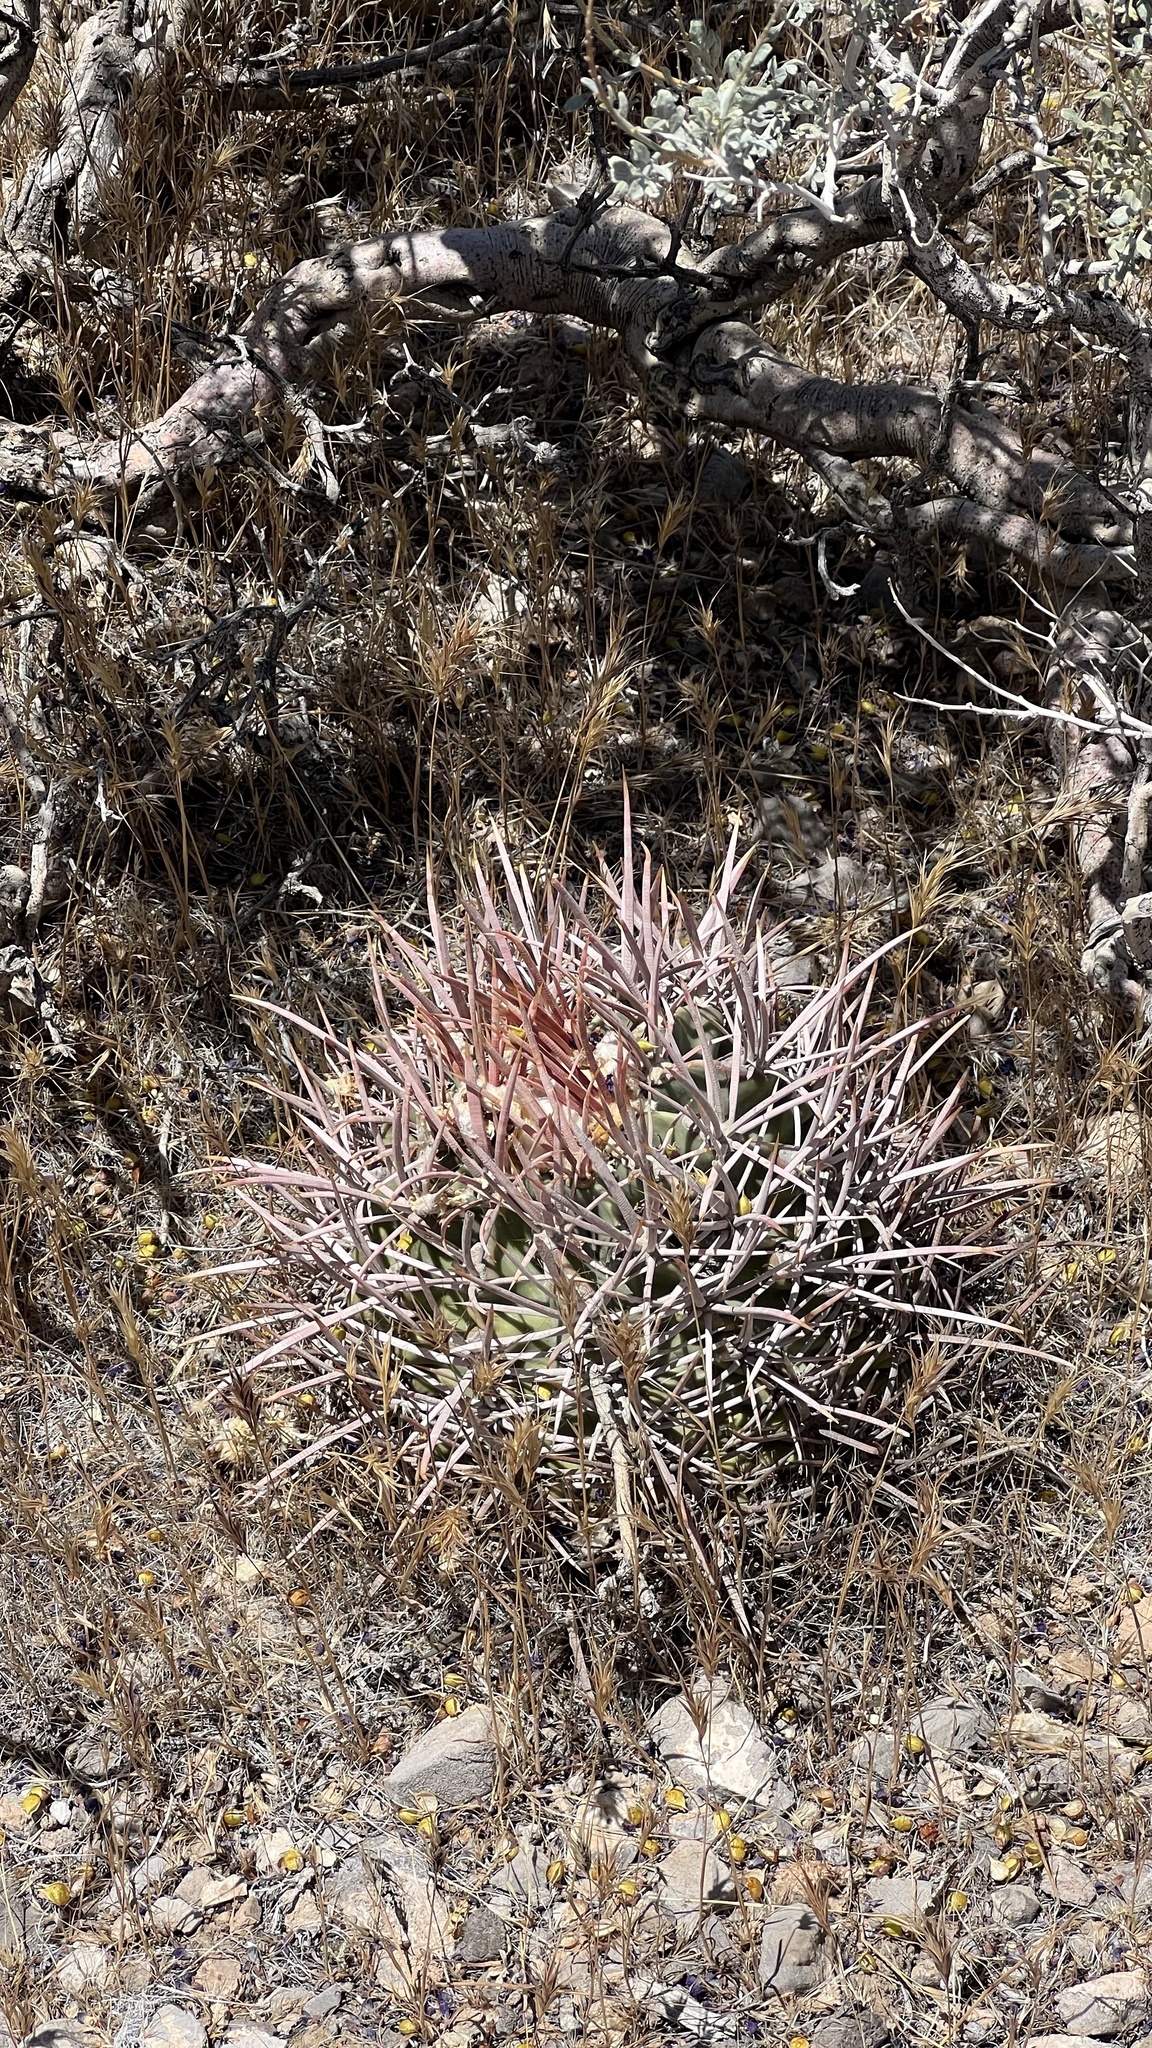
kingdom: Plantae
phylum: Tracheophyta
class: Magnoliopsida
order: Caryophyllales
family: Cactaceae
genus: Echinocactus
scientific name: Echinocactus polycephalus
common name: Cottontop cactus
